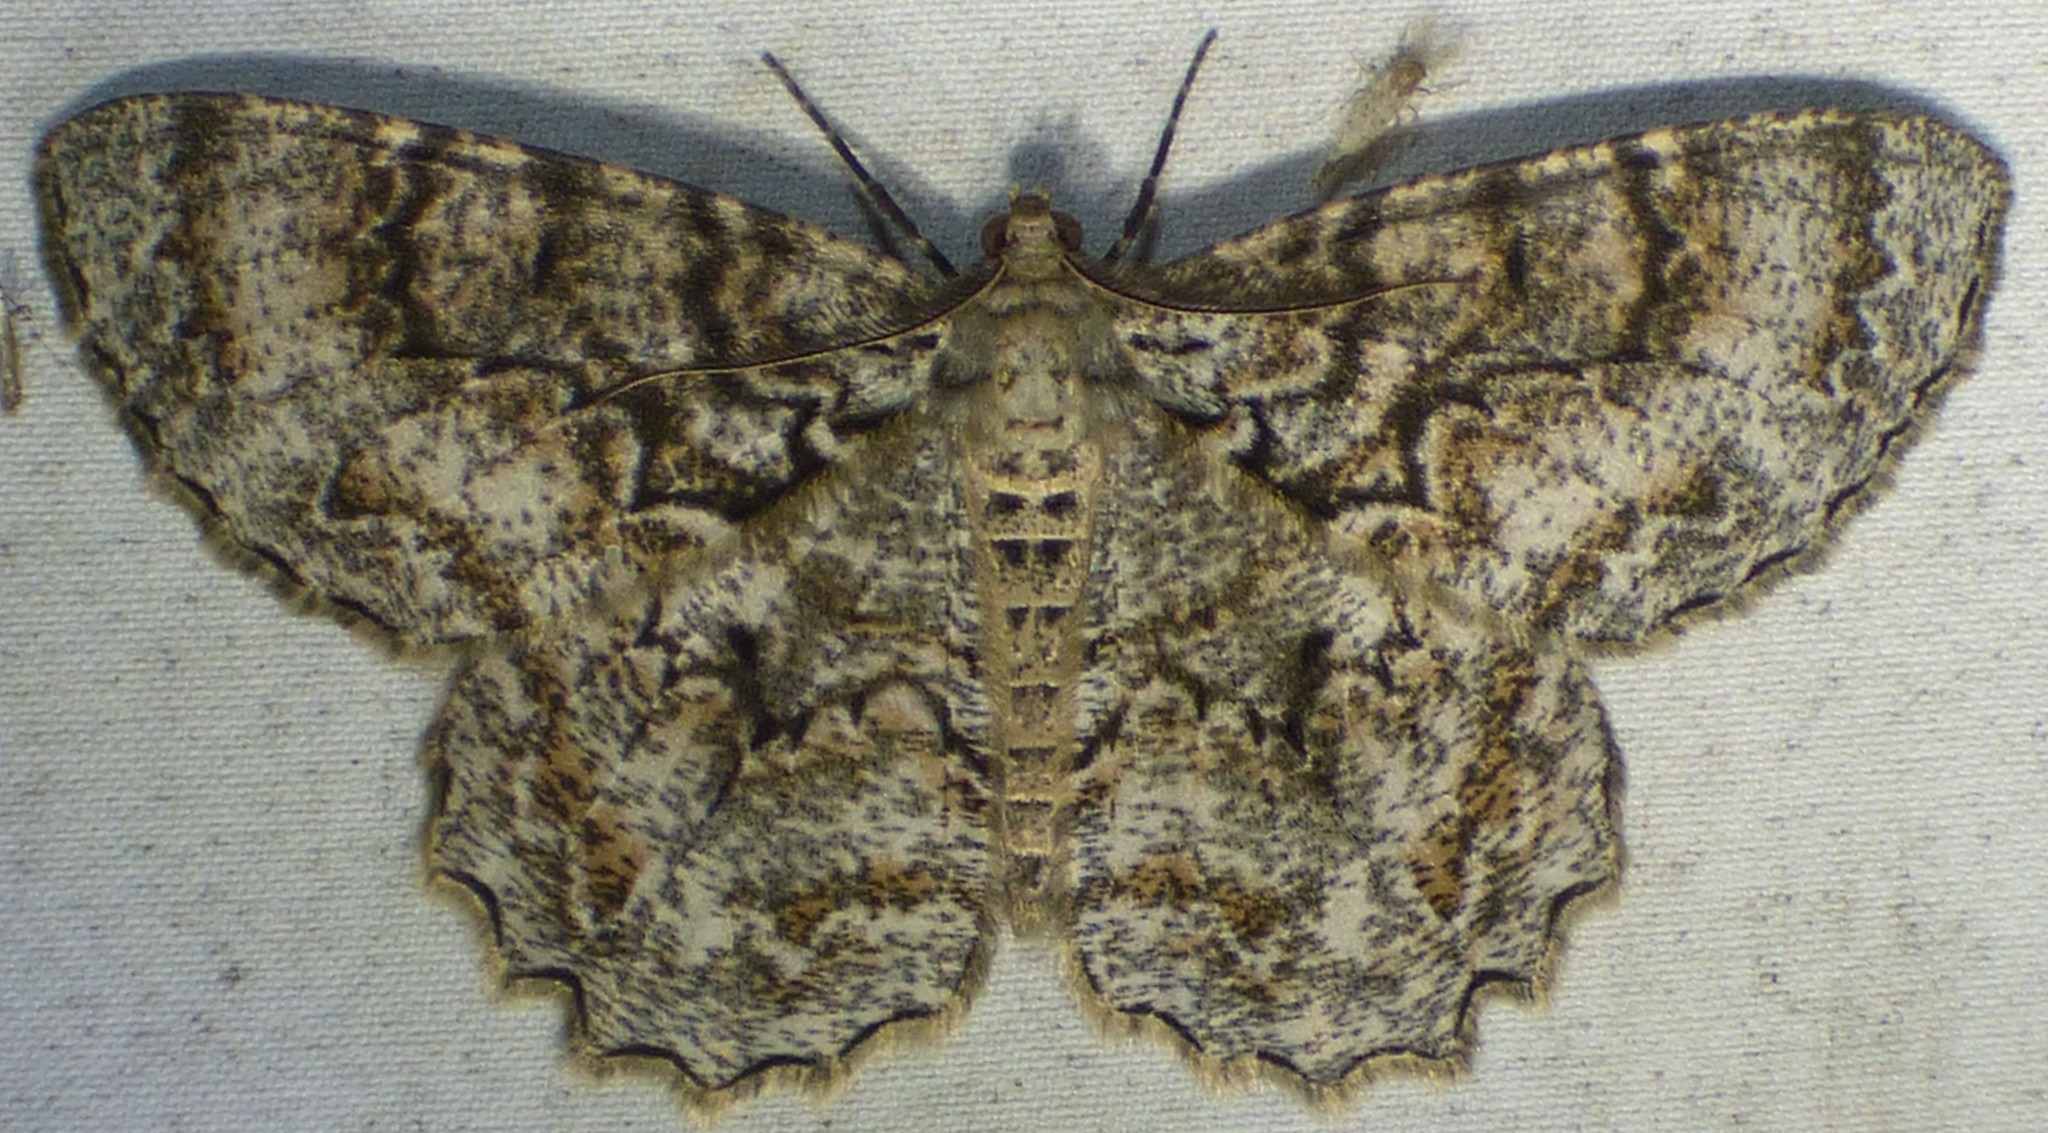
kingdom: Animalia
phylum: Arthropoda
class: Insecta
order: Lepidoptera
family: Geometridae
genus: Epimecis
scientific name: Epimecis hortaria
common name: Tulip-tree beauty
